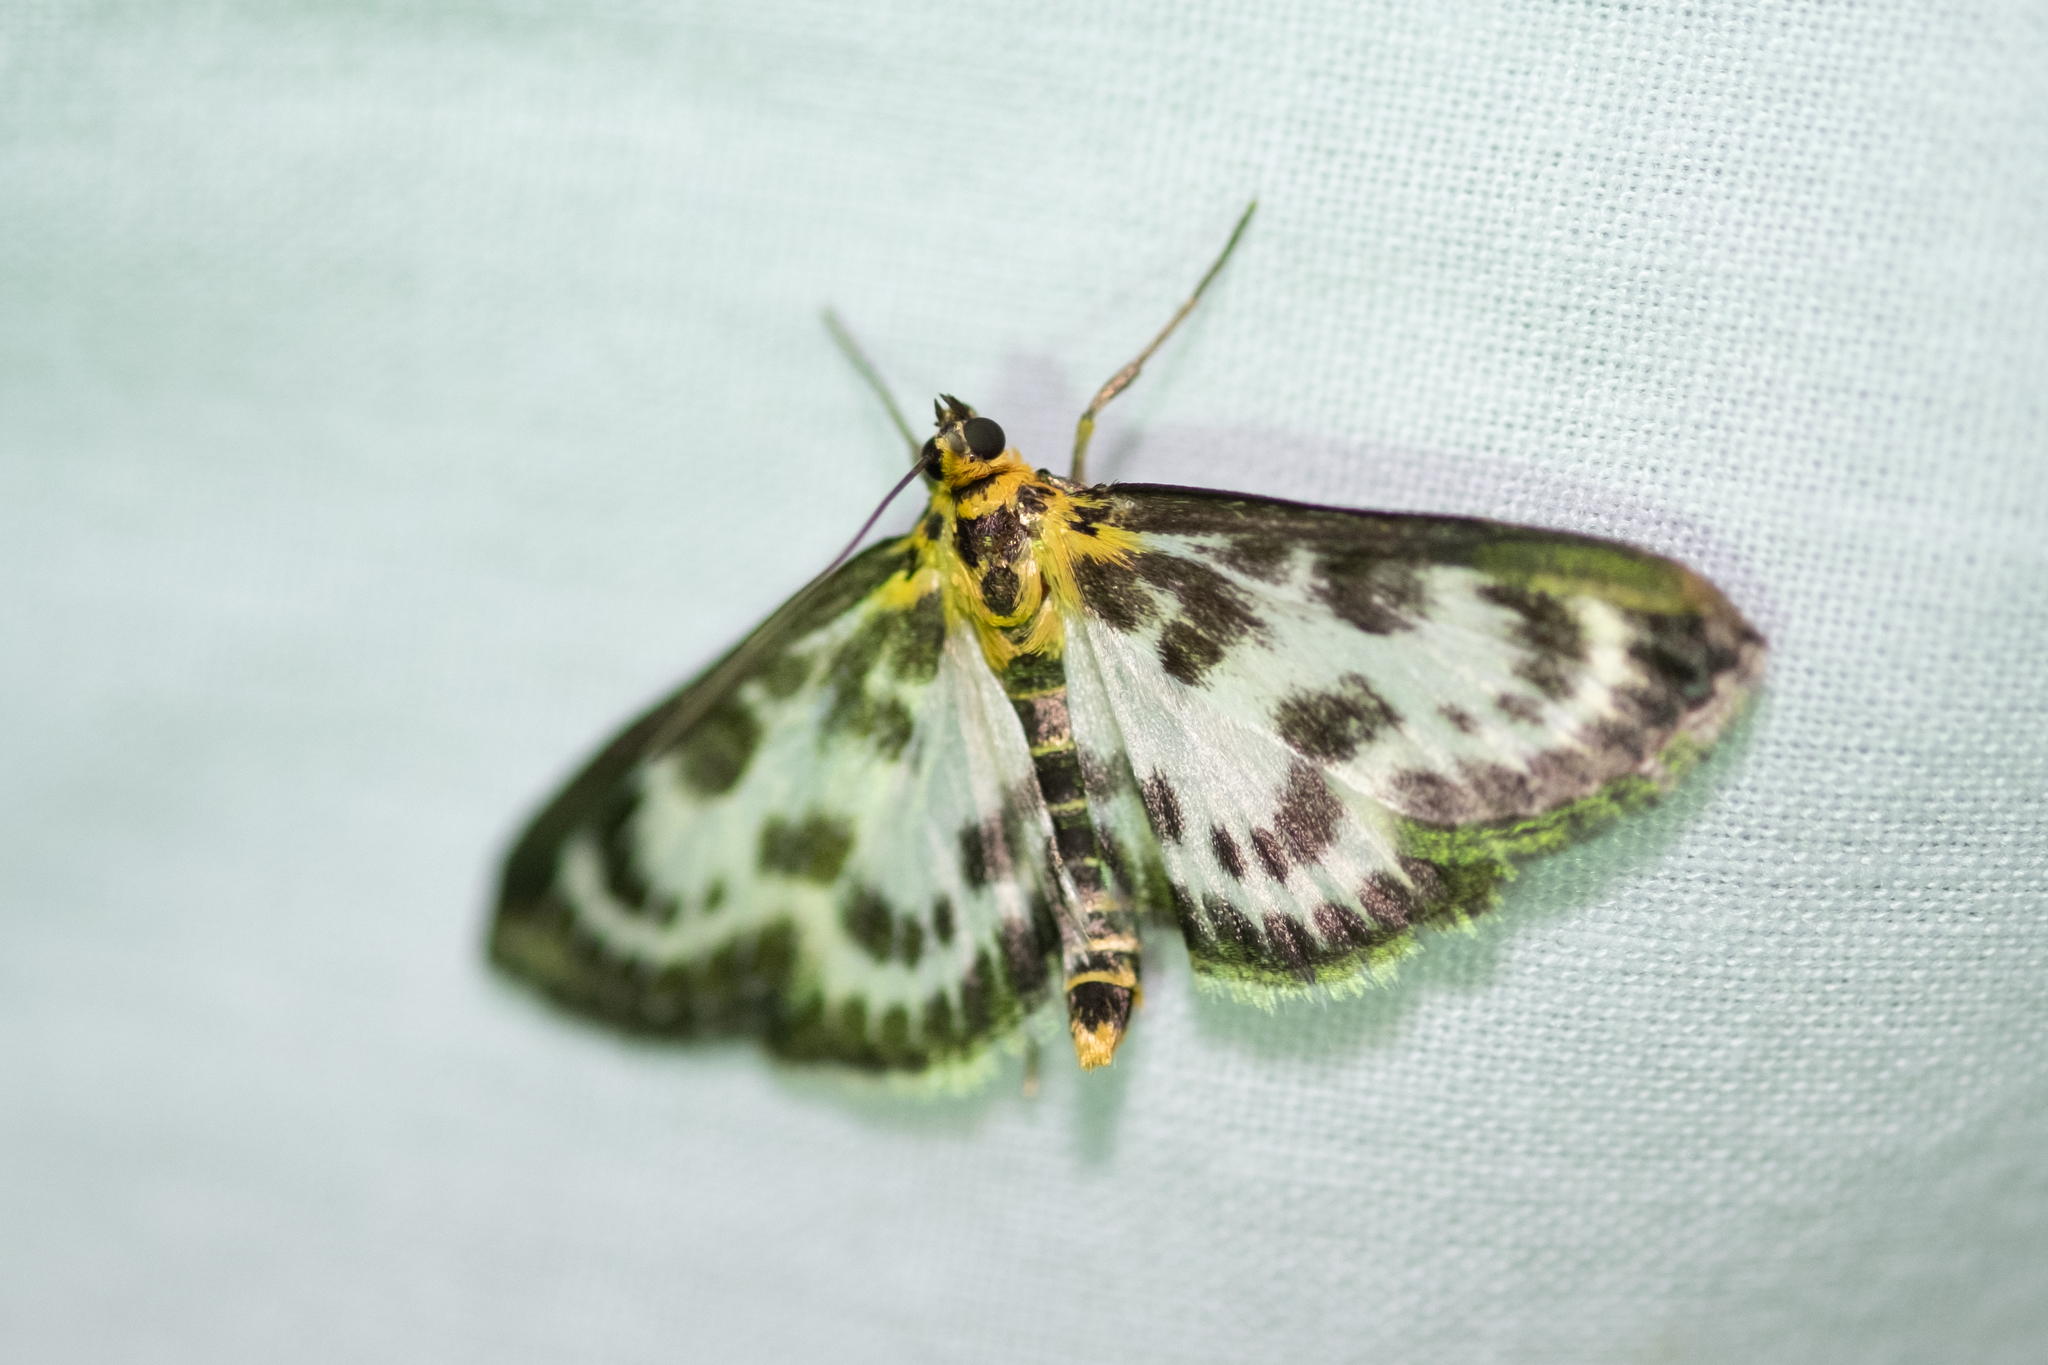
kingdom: Animalia
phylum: Arthropoda
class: Insecta
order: Lepidoptera
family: Crambidae
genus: Anania
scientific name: Anania hortulata
